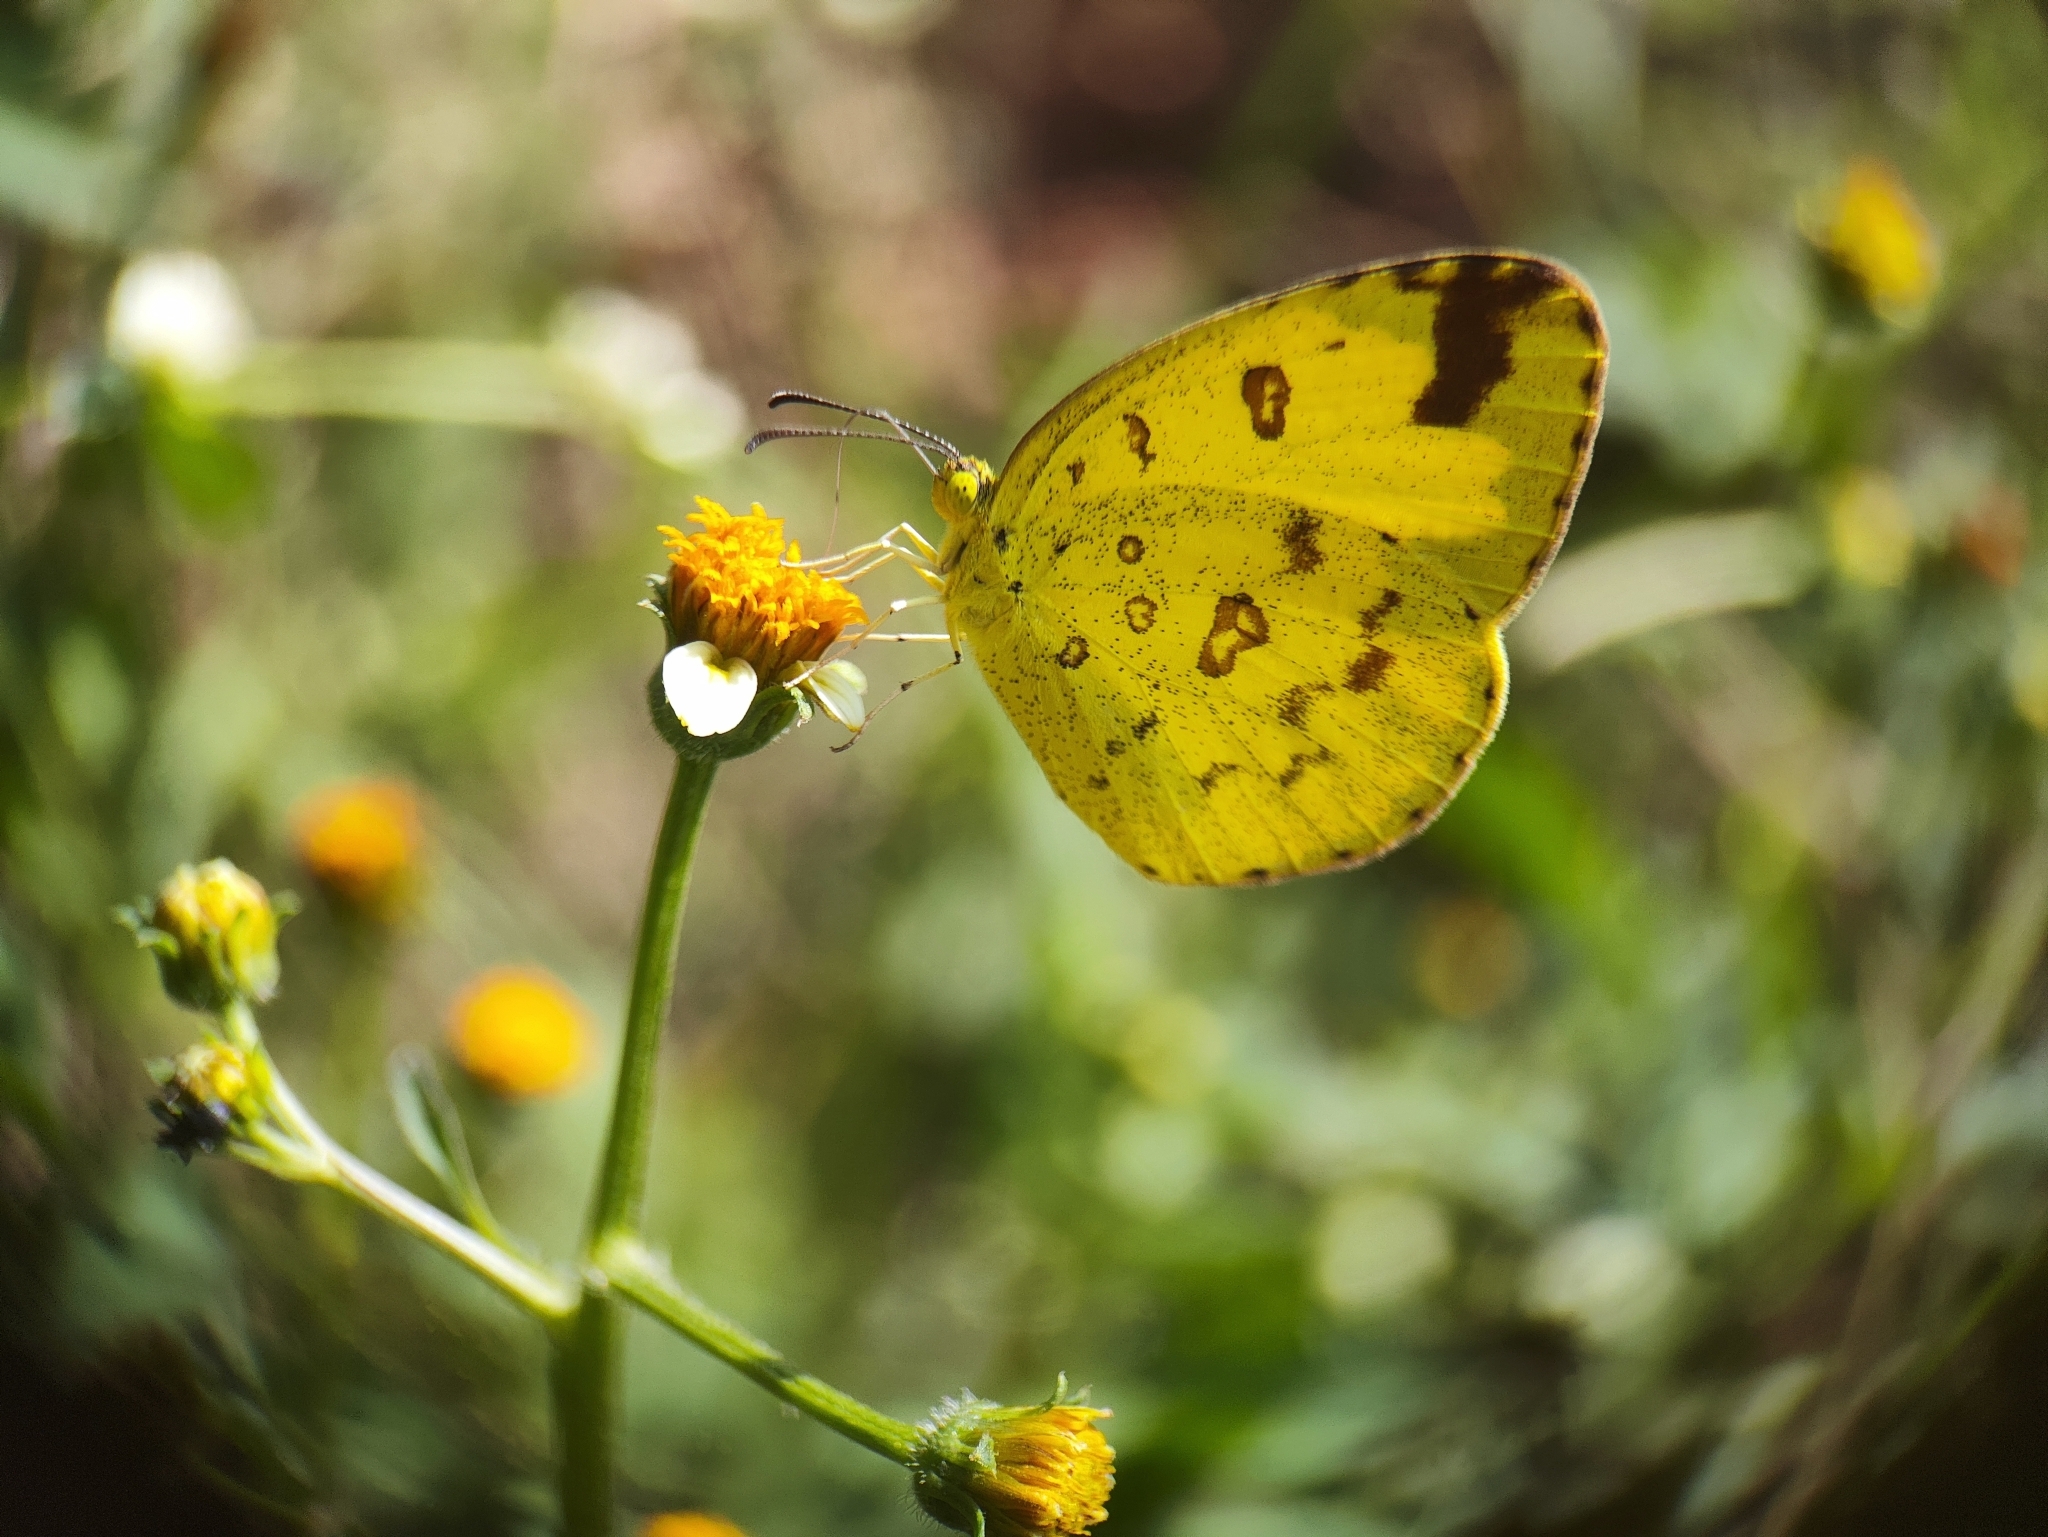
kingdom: Animalia
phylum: Arthropoda
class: Insecta
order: Lepidoptera
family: Pieridae
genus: Eurema
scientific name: Eurema hecabe
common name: Pale grass yellow
